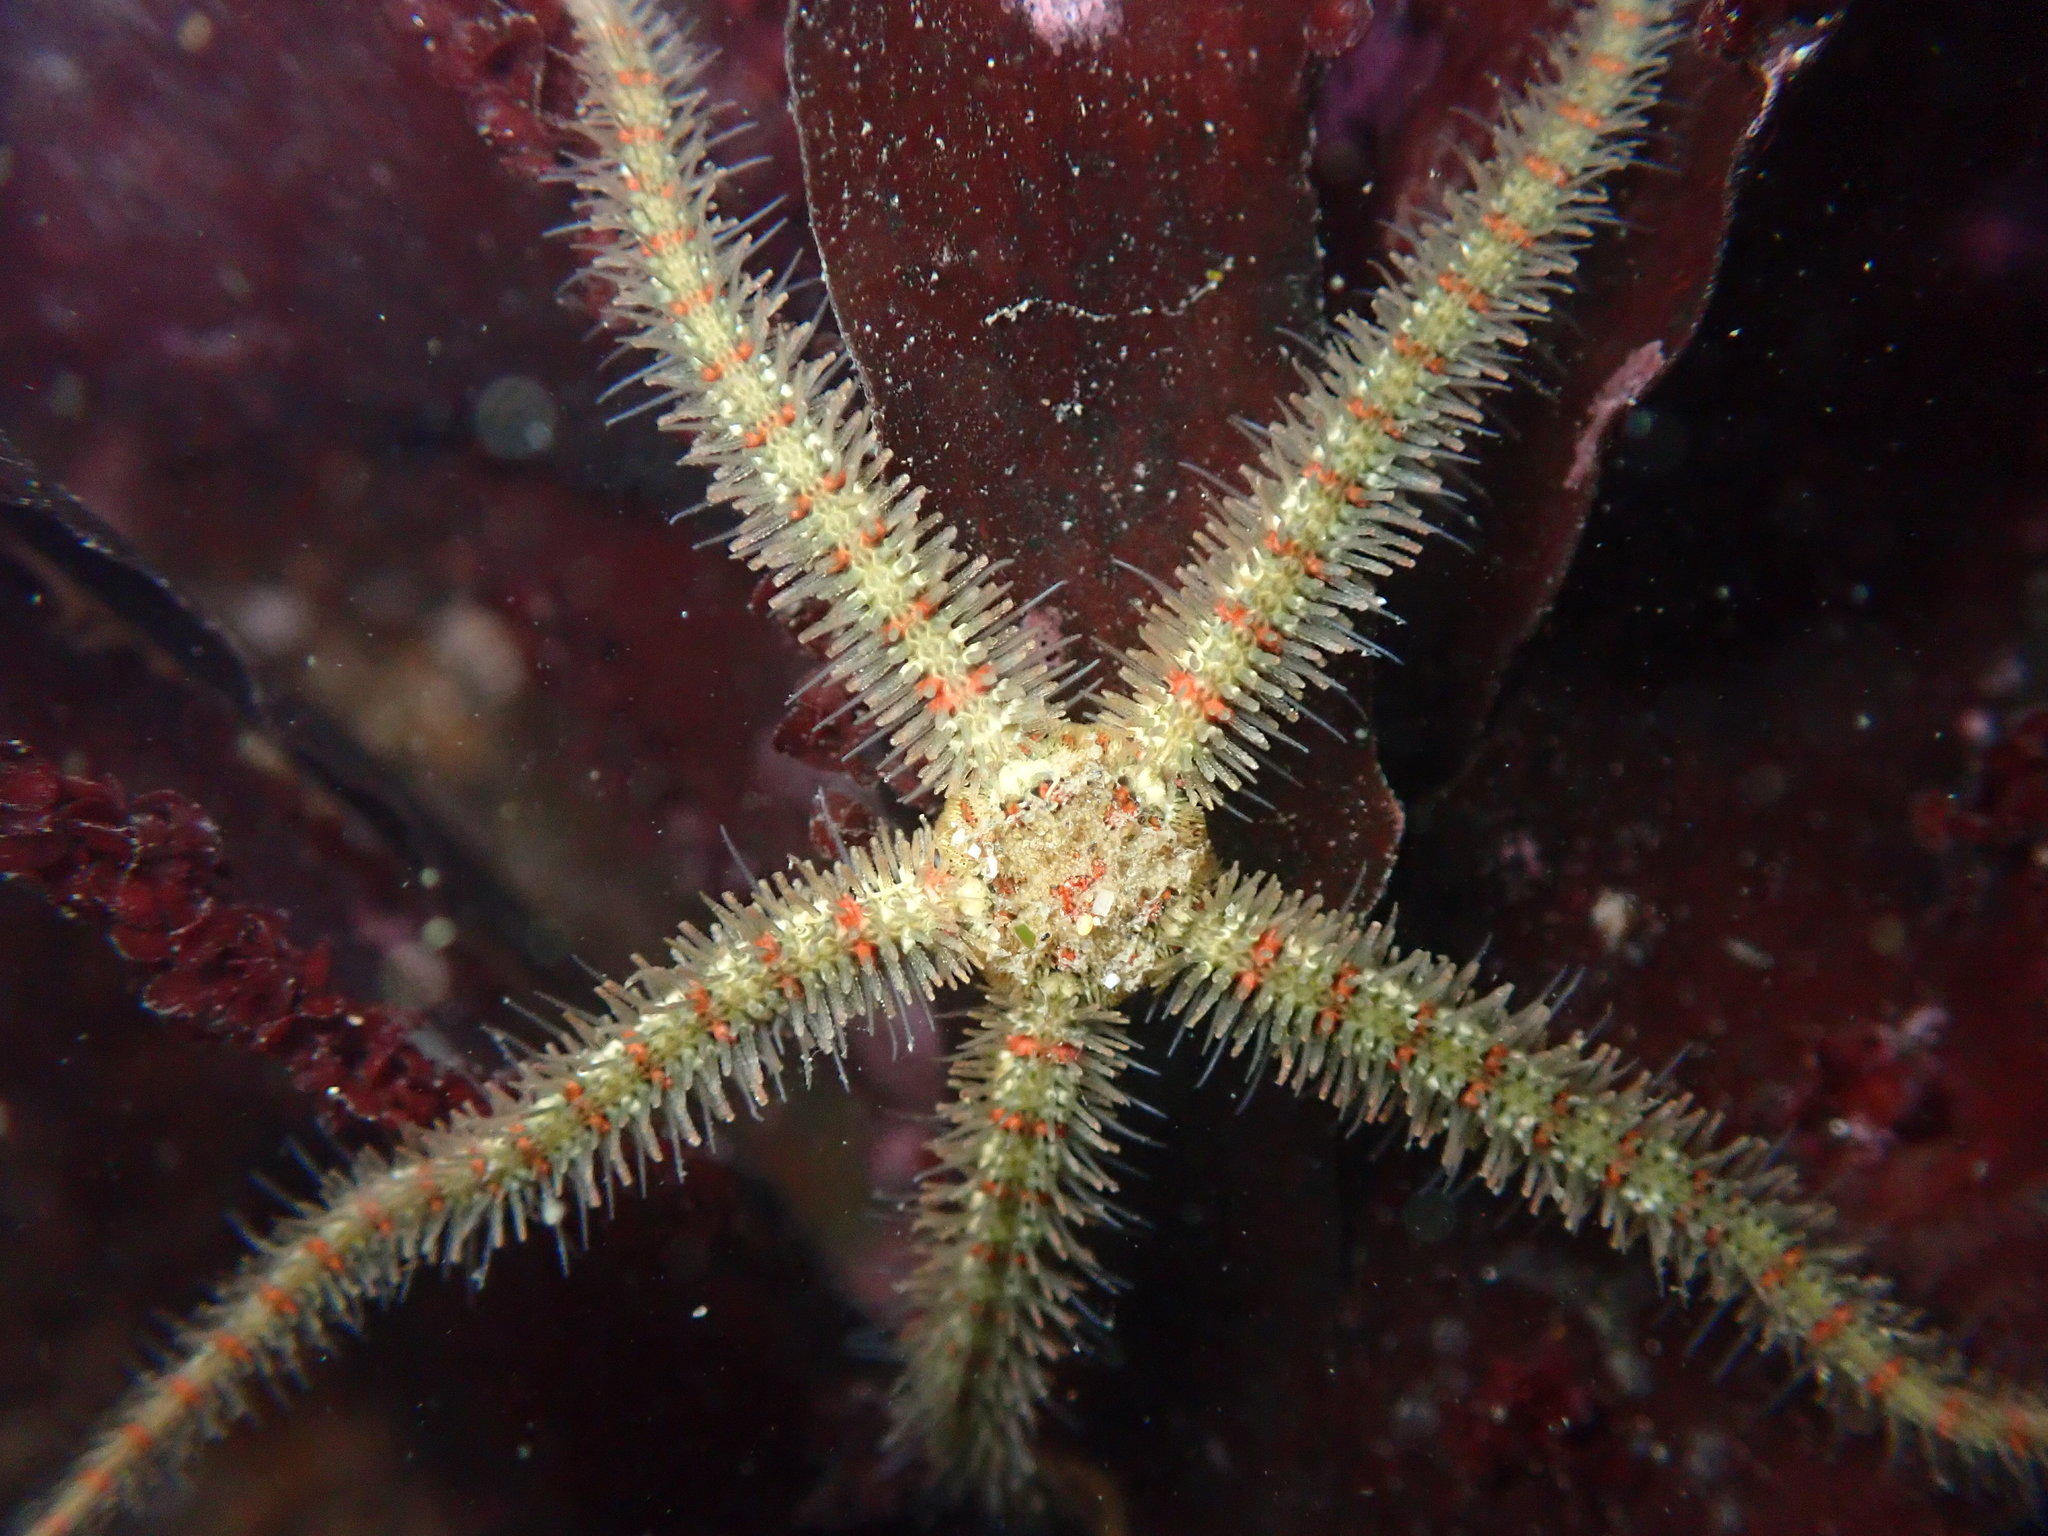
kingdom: Animalia
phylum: Echinodermata
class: Ophiuroidea
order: Amphilepidida
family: Ophiotrichidae
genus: Ophiothrix
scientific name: Ophiothrix spiculata
